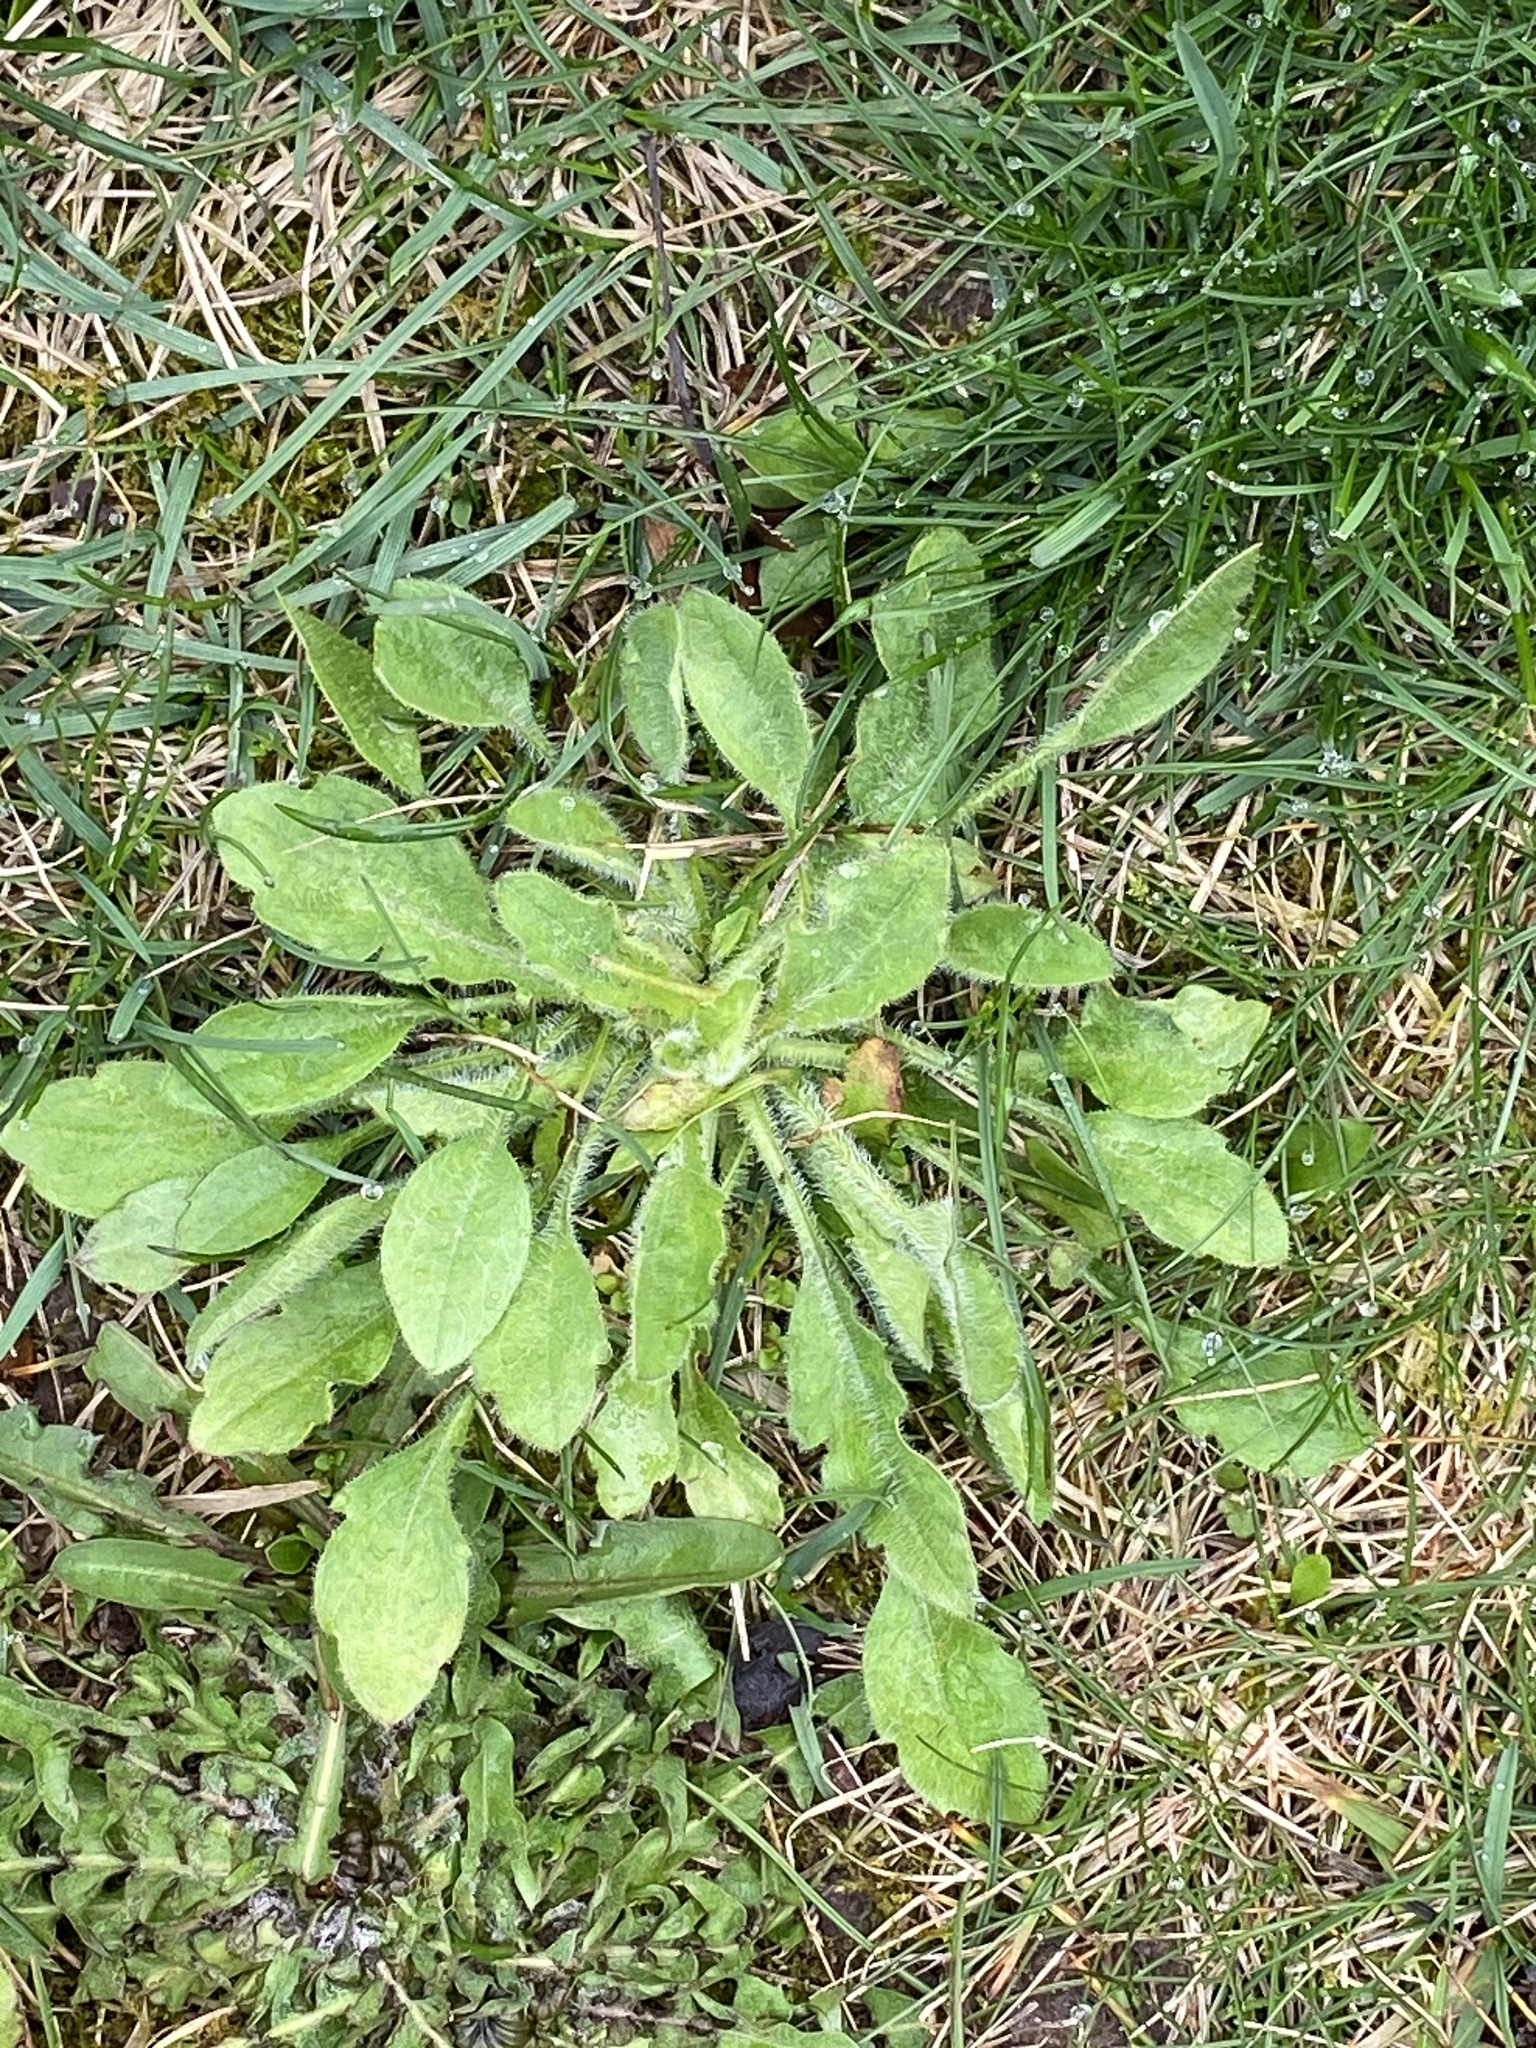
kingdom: Plantae
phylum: Tracheophyta
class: Magnoliopsida
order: Asterales
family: Asteraceae
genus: Erigeron
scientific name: Erigeron canadensis
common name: Canadian fleabane
